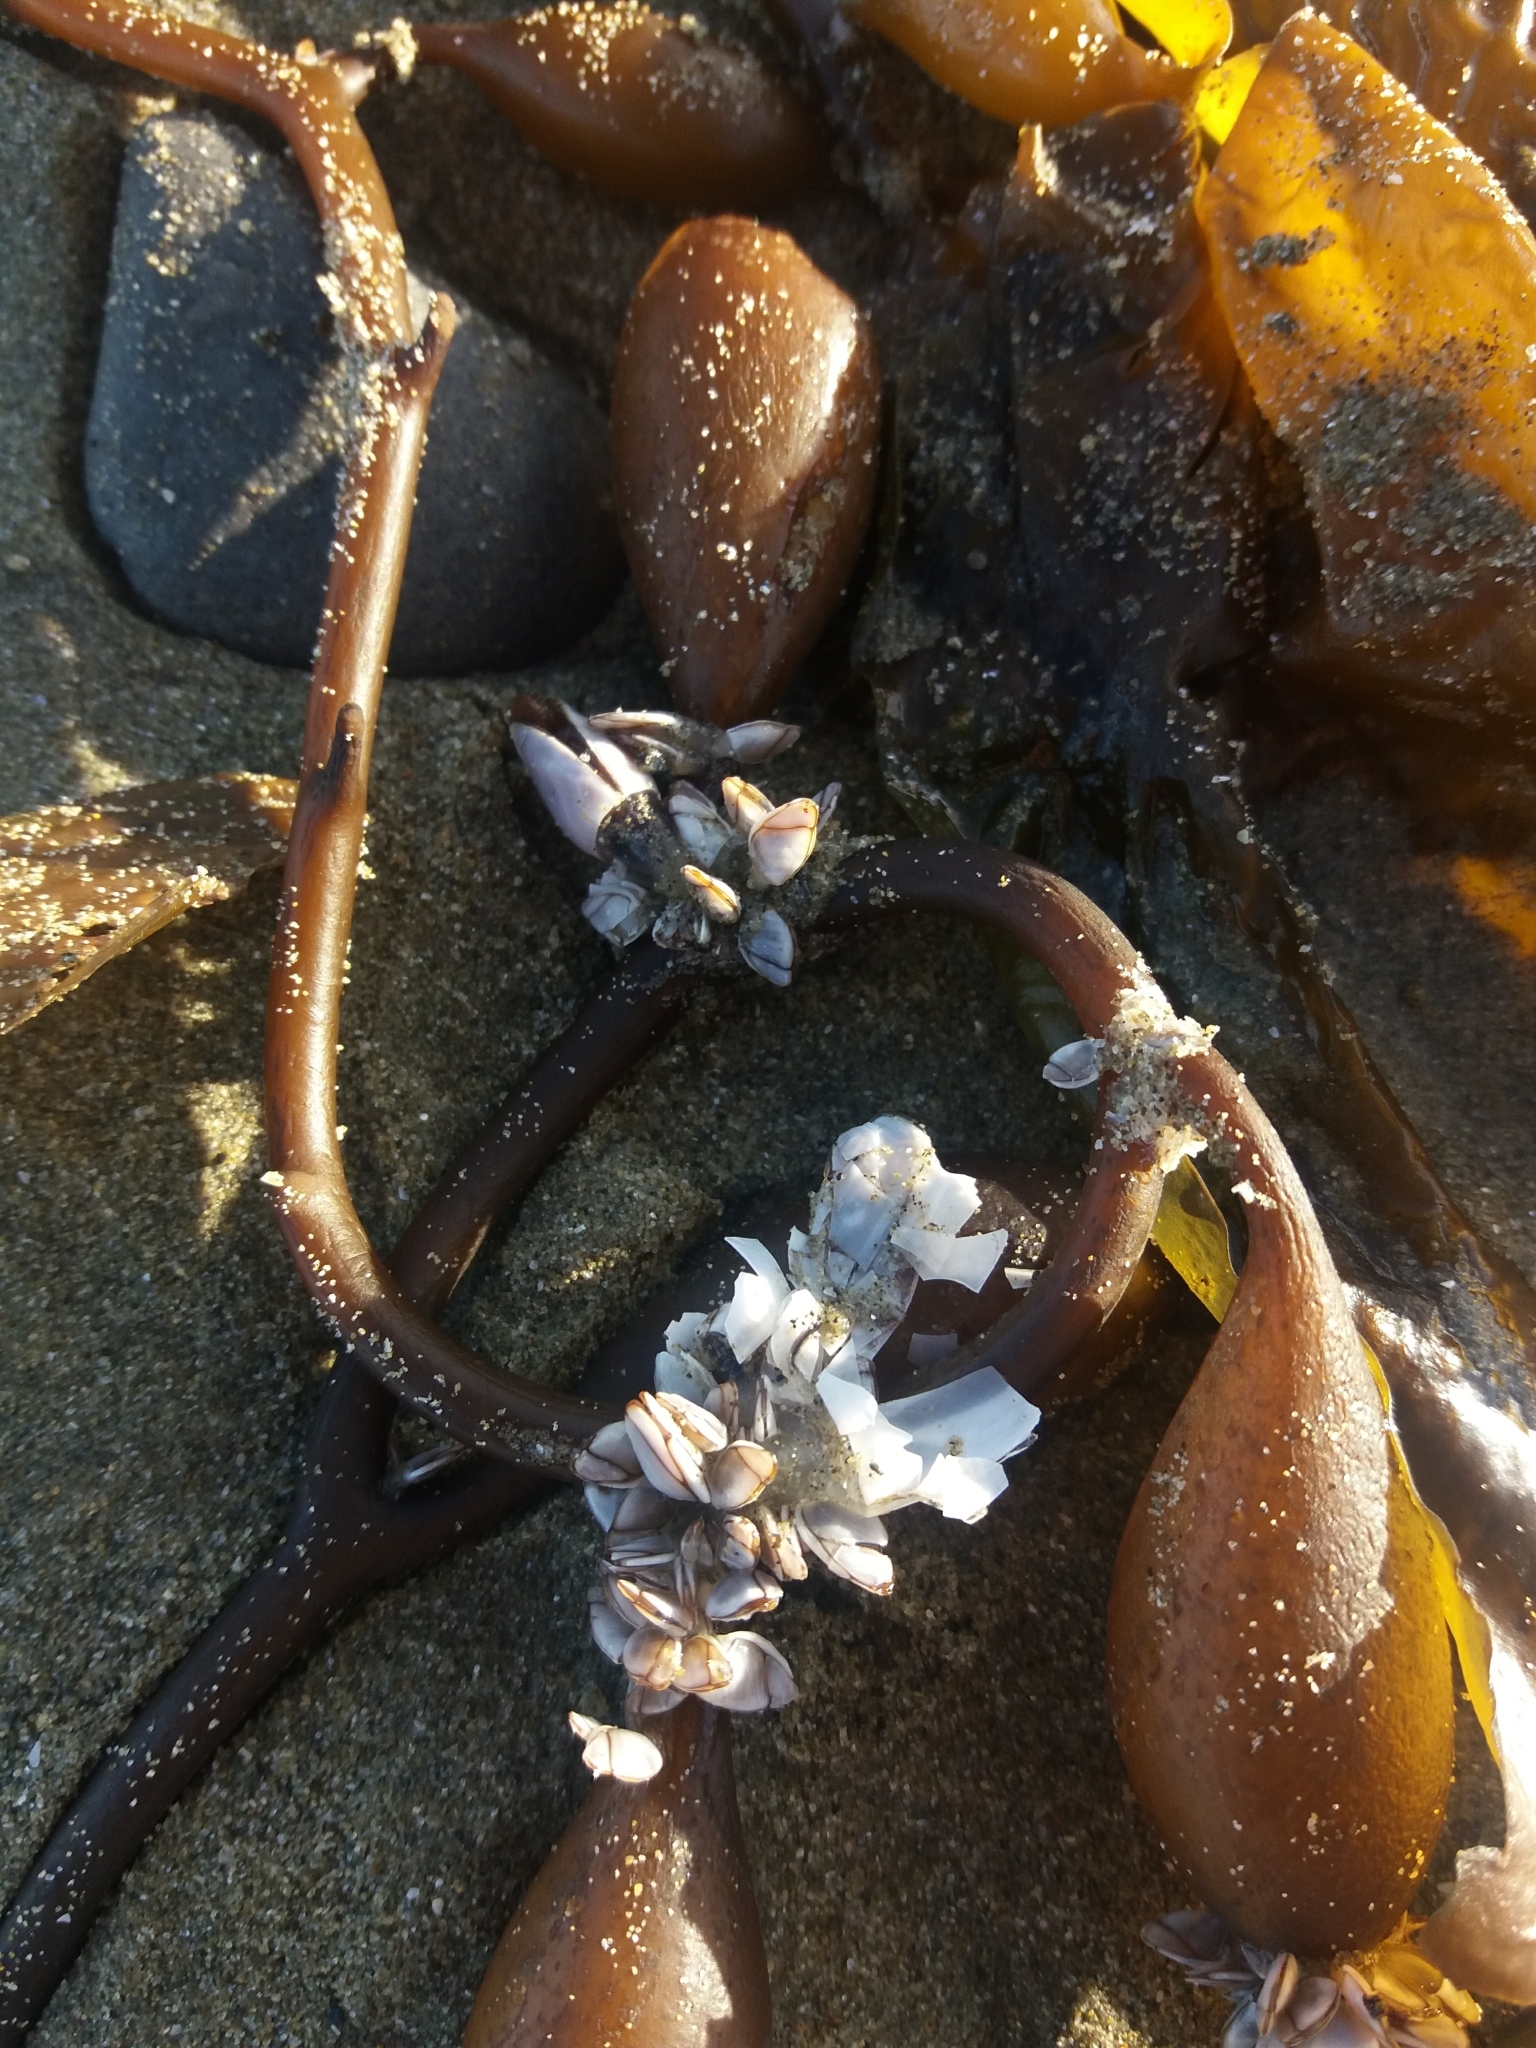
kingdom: Animalia
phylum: Arthropoda
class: Maxillopoda
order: Pedunculata
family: Lepadidae
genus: Lepas
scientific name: Lepas anatifera
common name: Common goose barnacle
